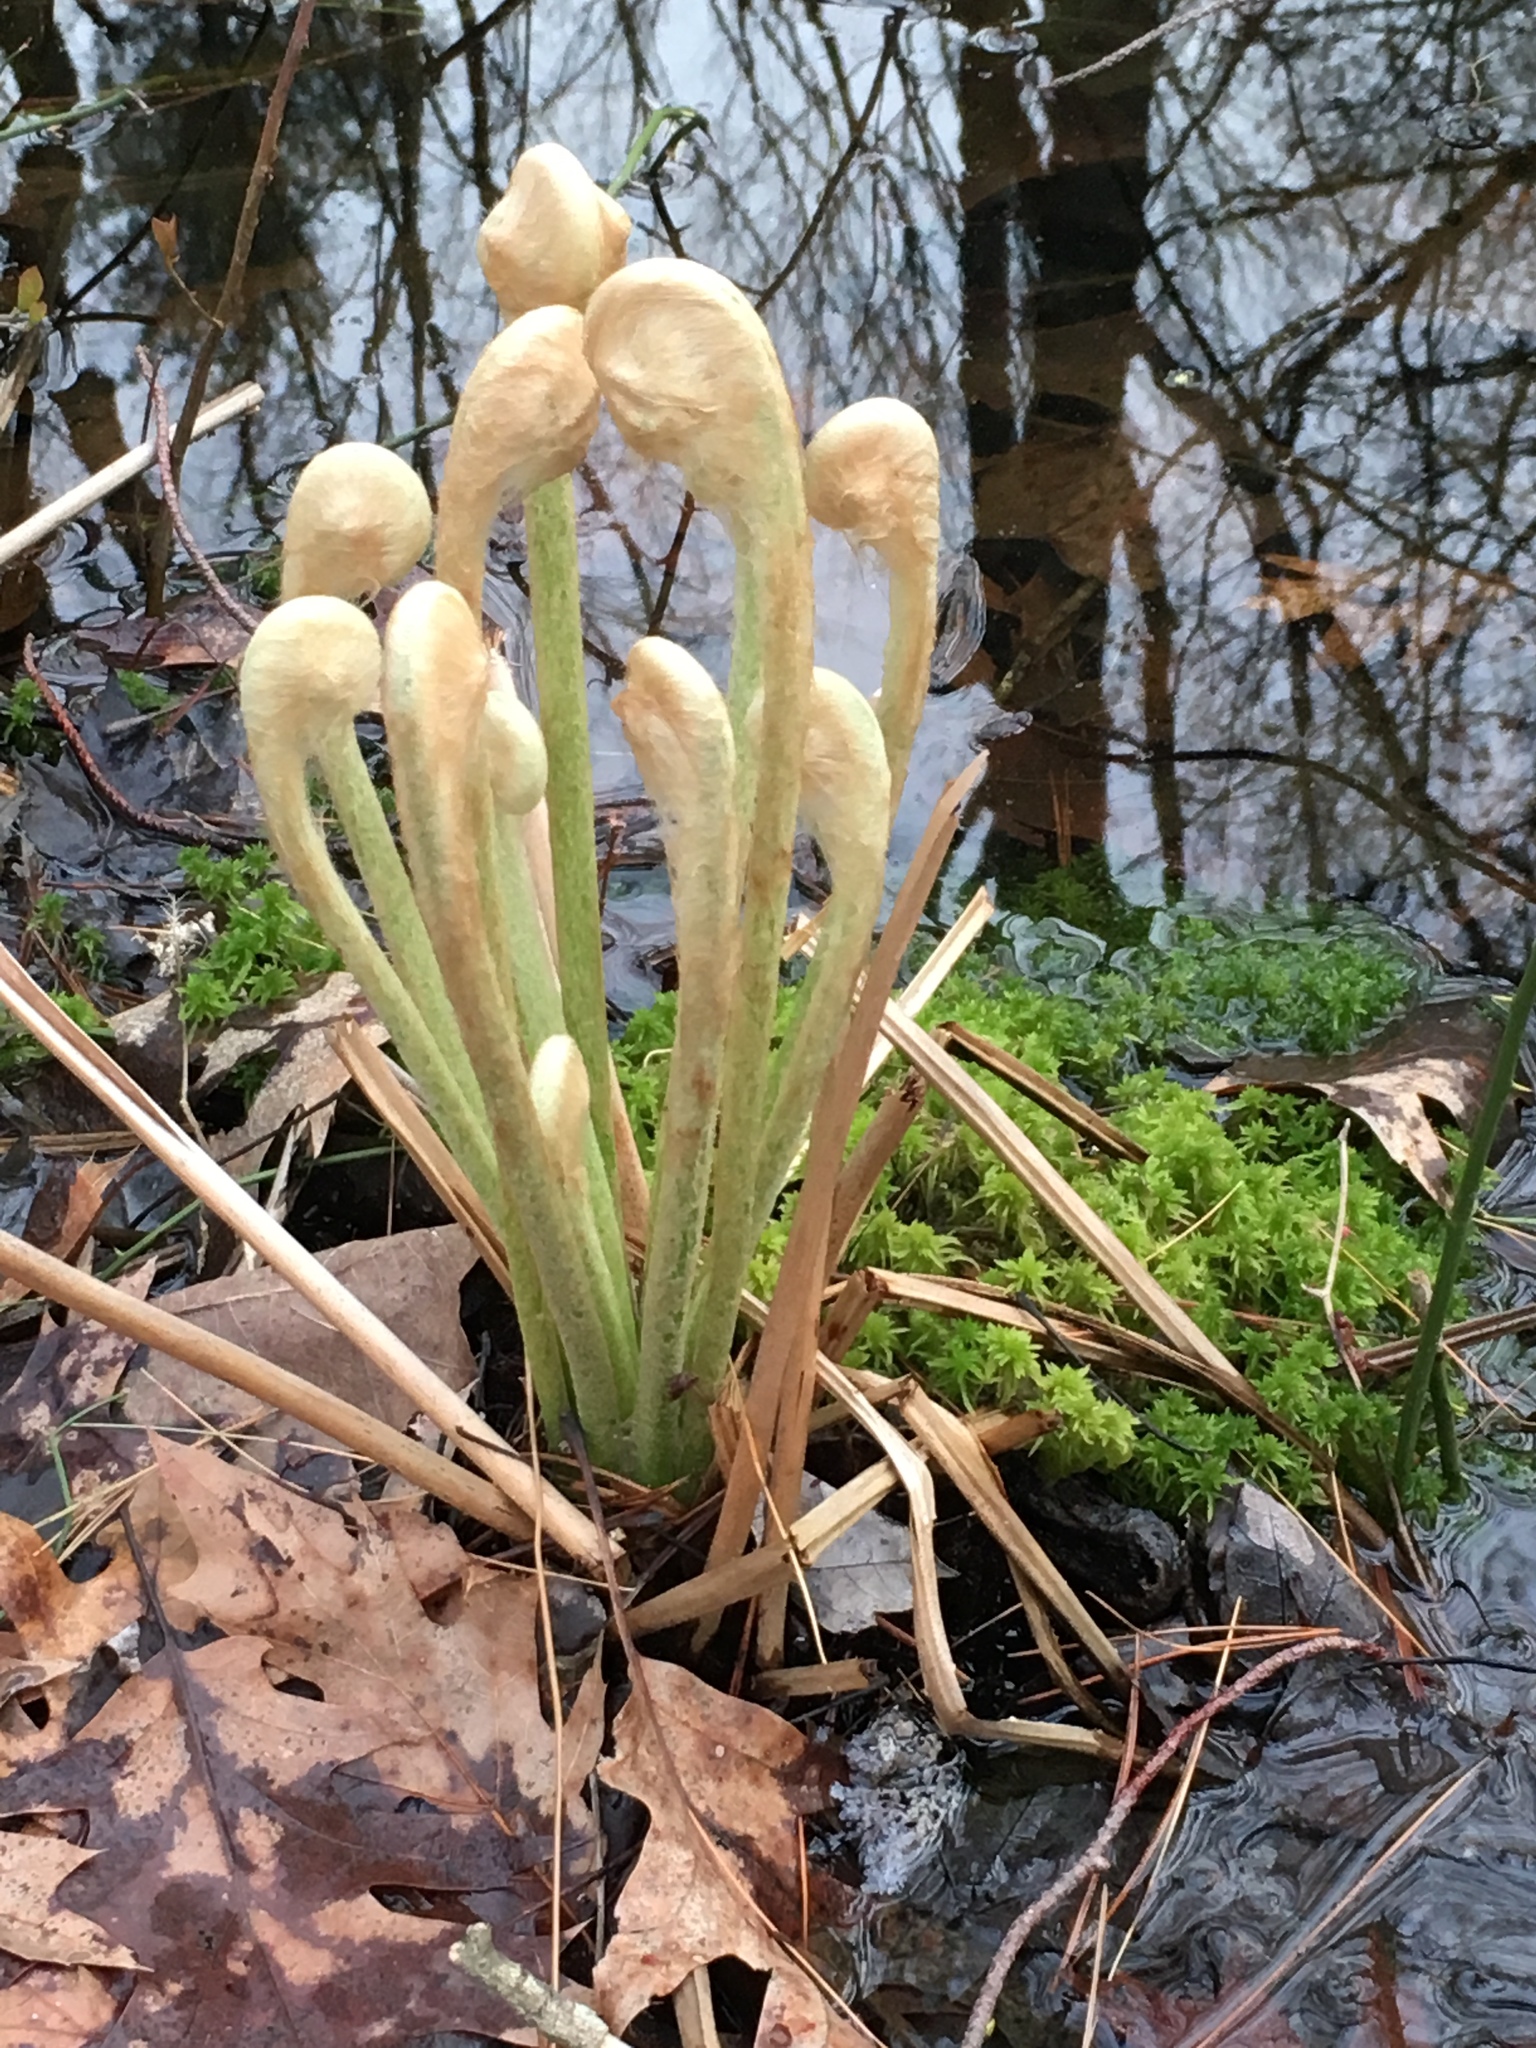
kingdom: Plantae
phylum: Tracheophyta
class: Polypodiopsida
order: Osmundales
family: Osmundaceae
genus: Osmundastrum
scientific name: Osmundastrum cinnamomeum
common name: Cinnamon fern
